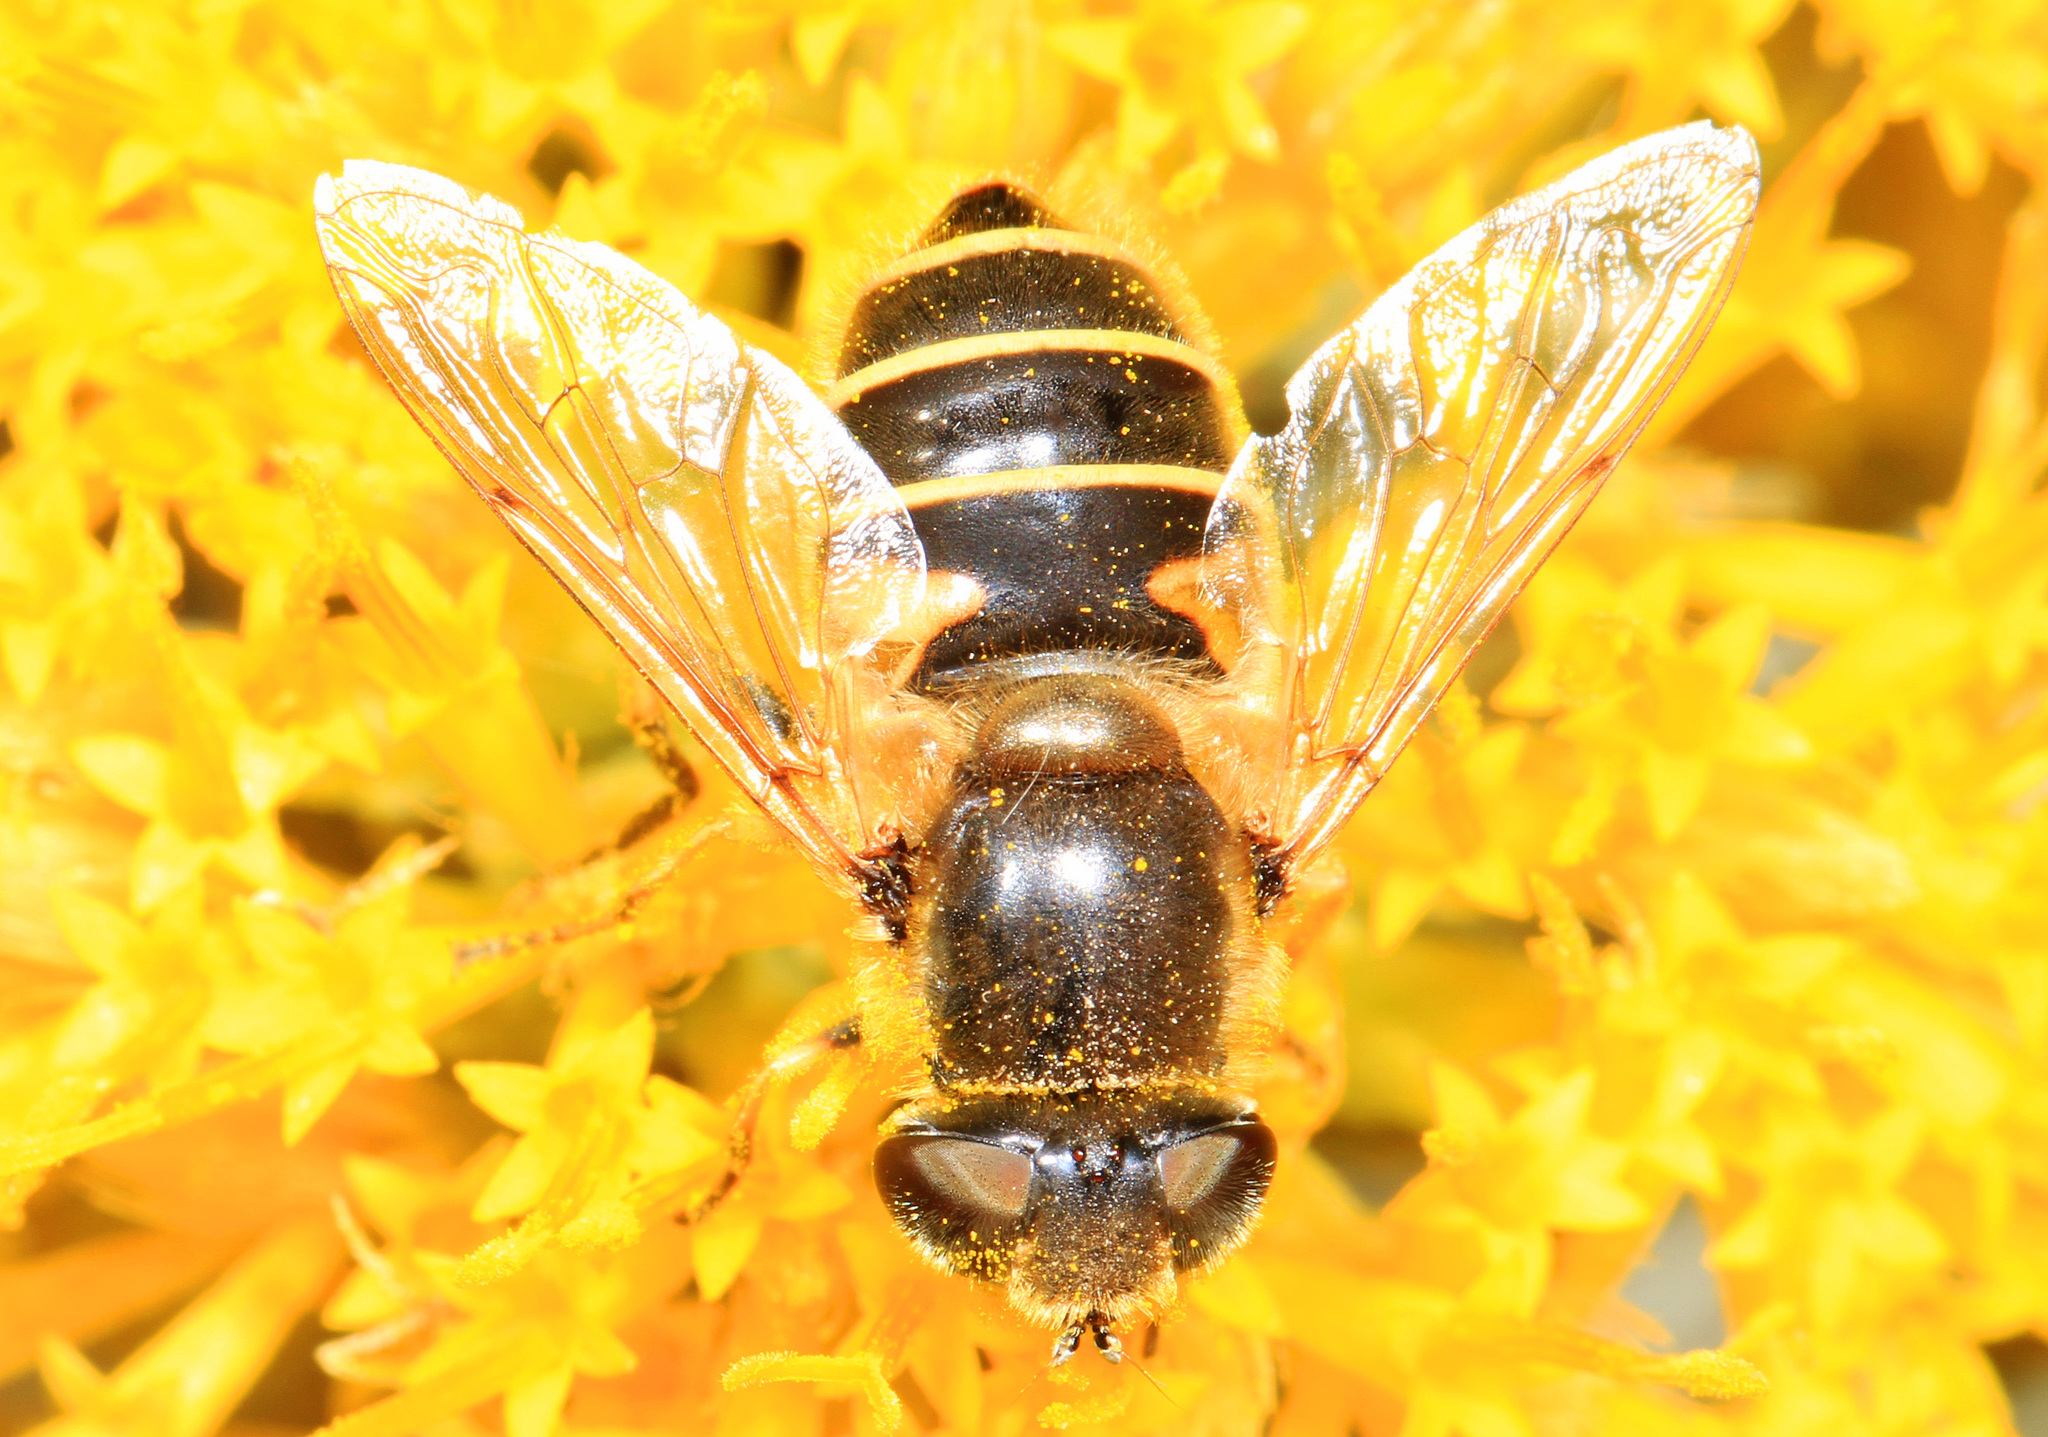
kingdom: Animalia
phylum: Arthropoda
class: Insecta
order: Diptera
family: Syrphidae
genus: Eristalis
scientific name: Eristalis hirta
